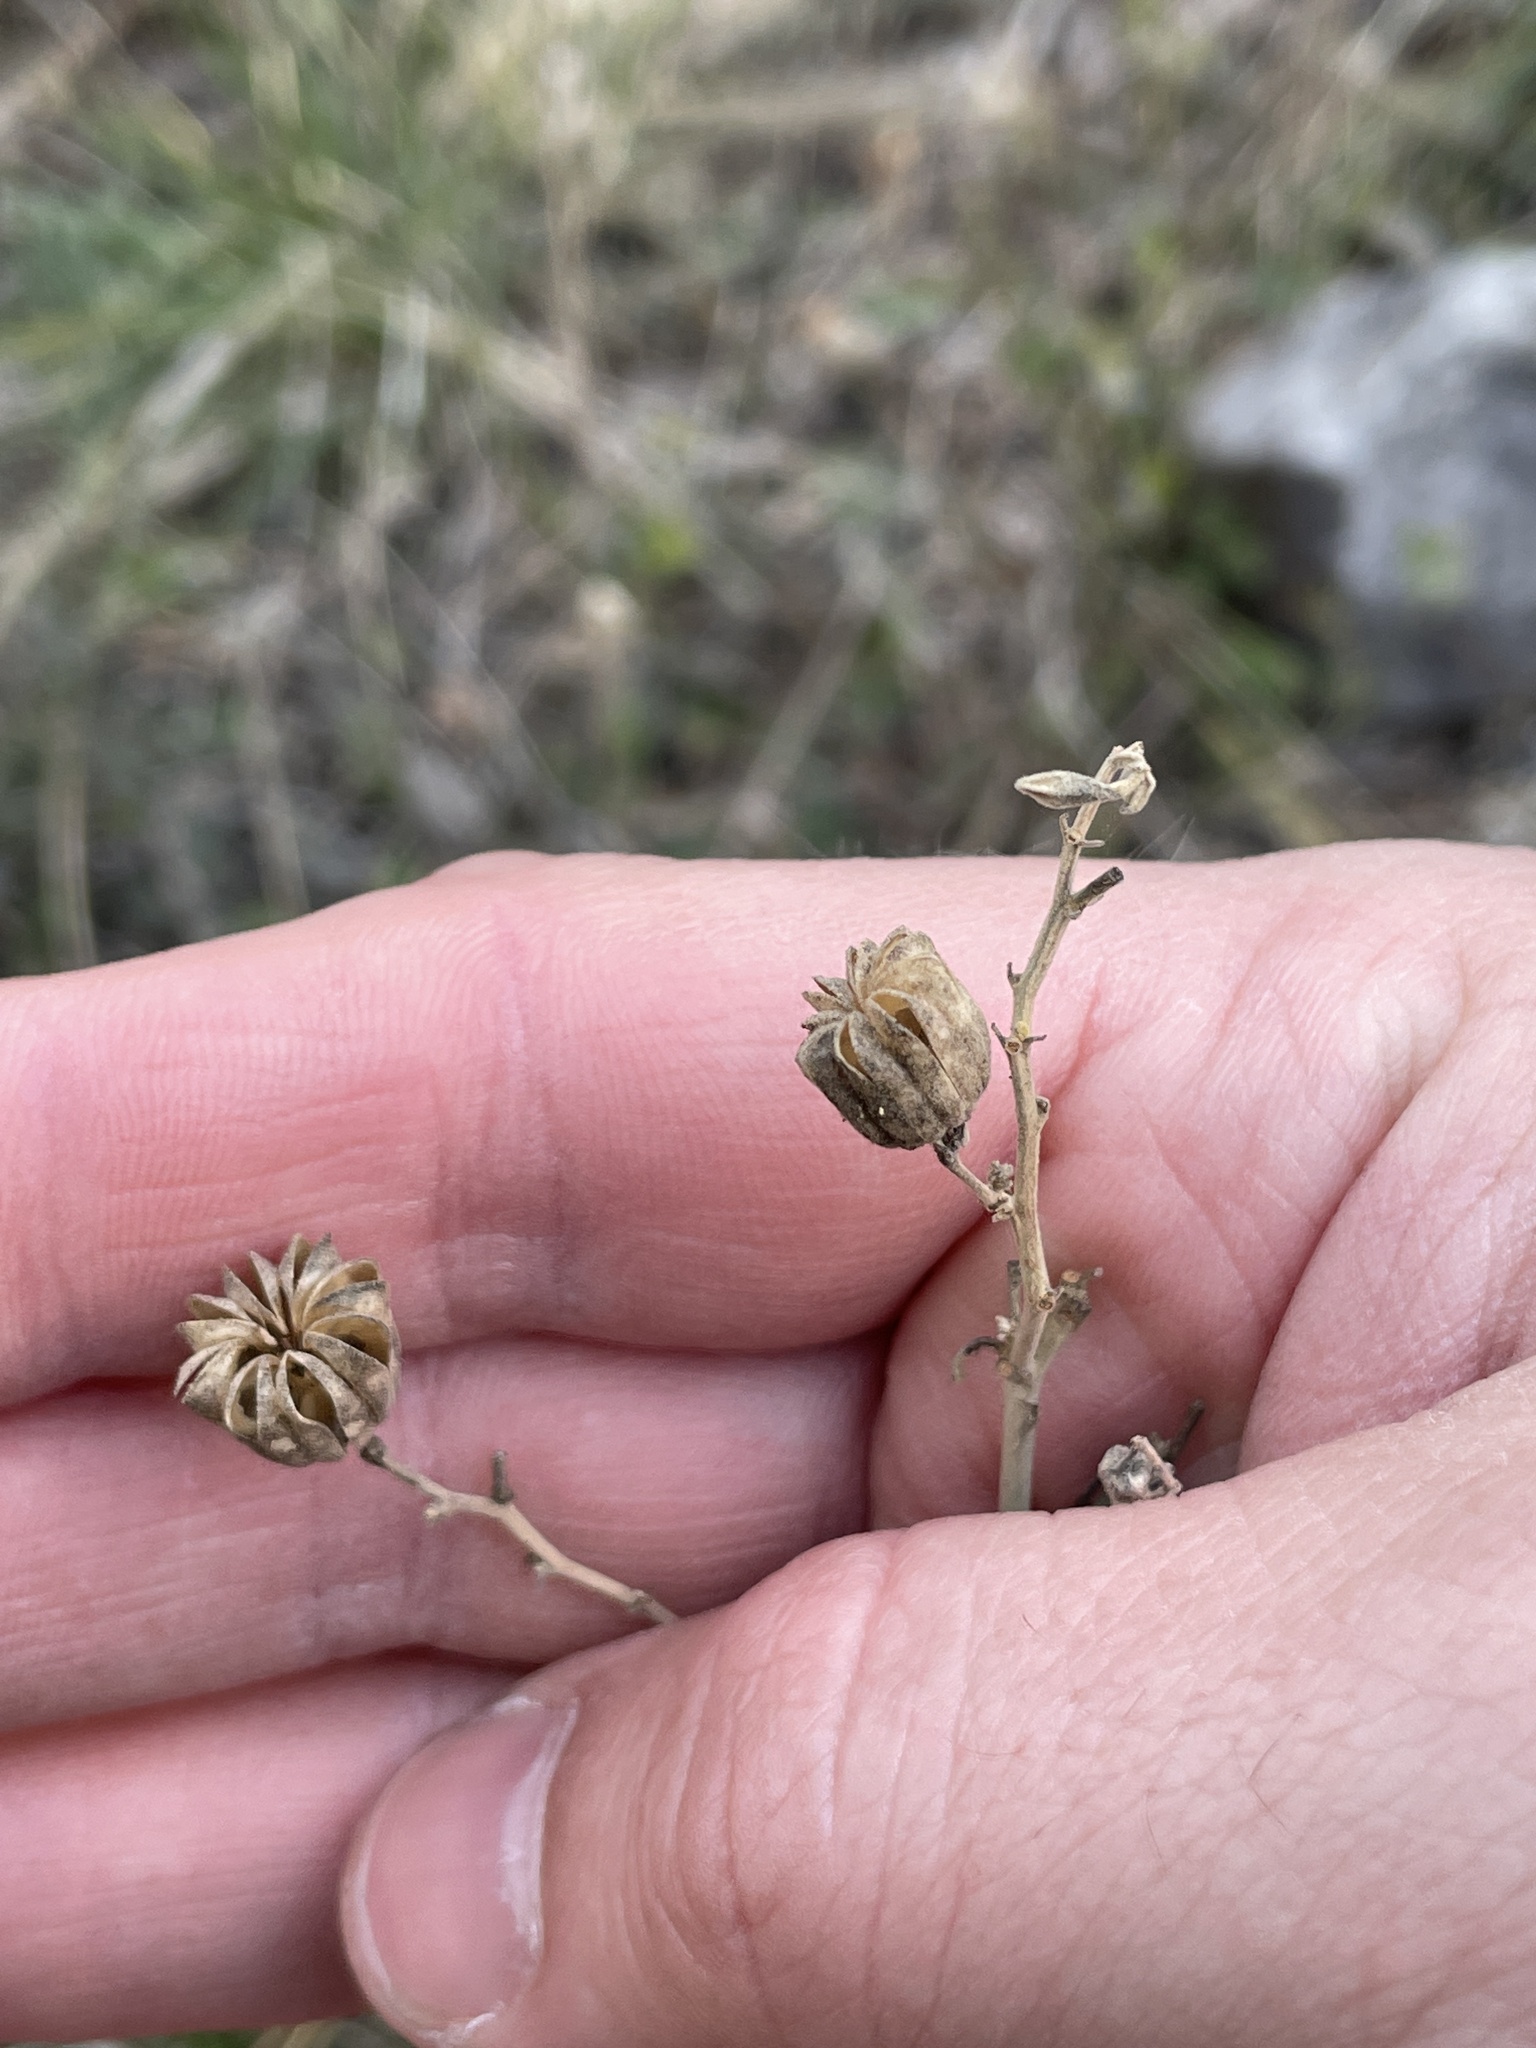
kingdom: Plantae
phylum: Tracheophyta
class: Magnoliopsida
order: Malvales
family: Malvaceae
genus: Abutilon
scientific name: Abutilon fruticosum
